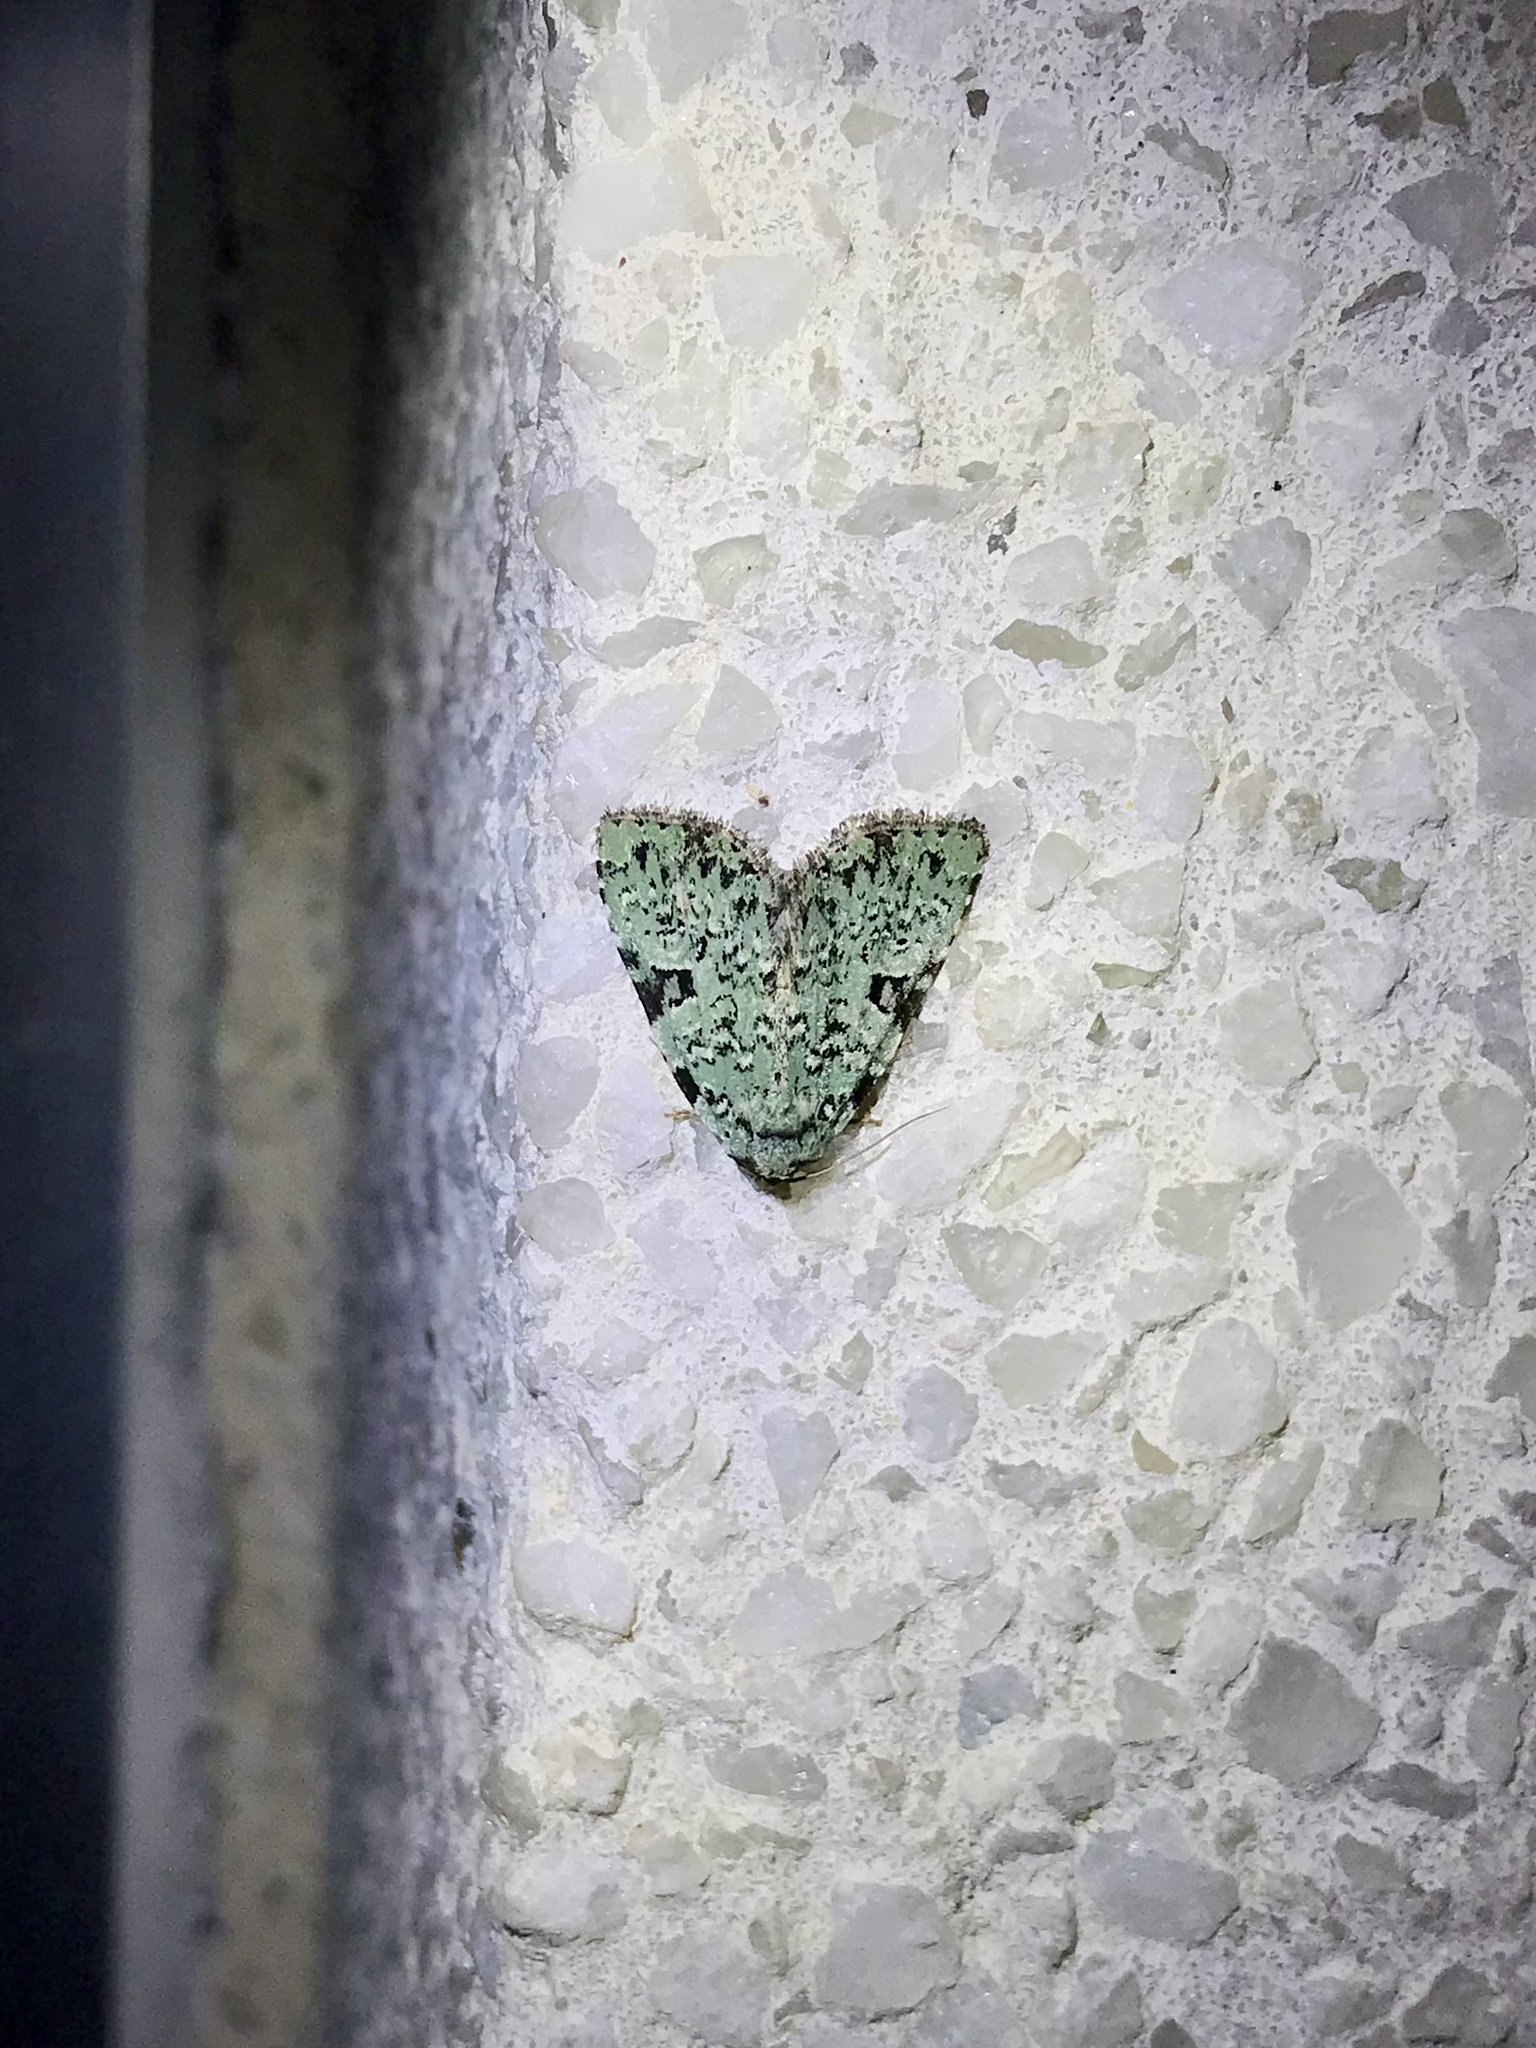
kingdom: Animalia
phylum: Arthropoda
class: Insecta
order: Lepidoptera
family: Noctuidae
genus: Leuconycta
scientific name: Leuconycta diphteroides
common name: Green leuconycta moth
